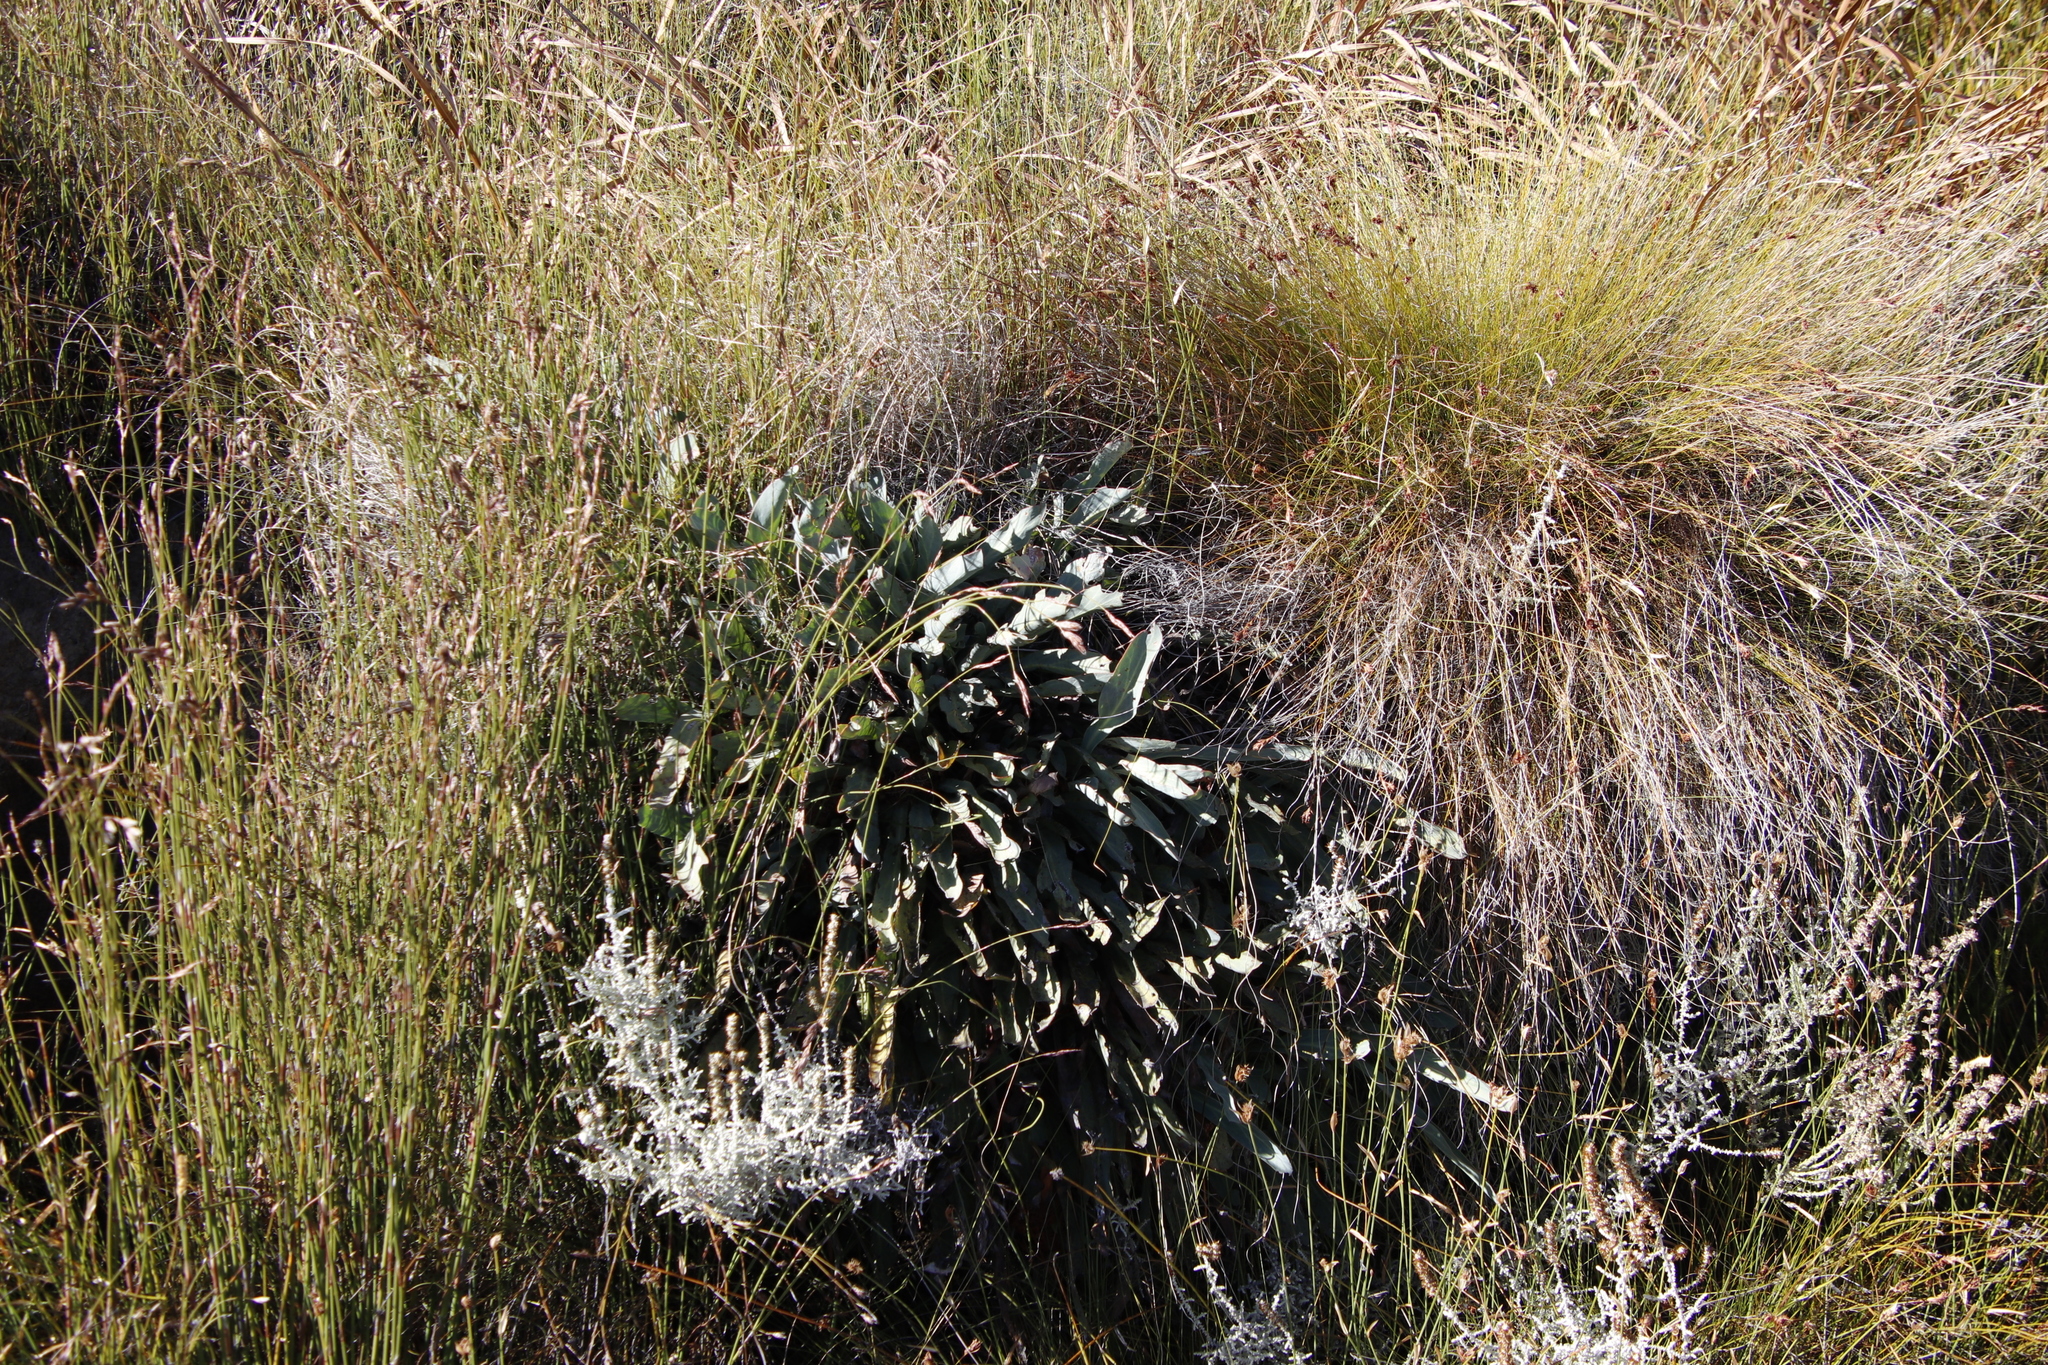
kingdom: Plantae
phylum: Tracheophyta
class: Magnoliopsida
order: Proteales
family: Proteaceae
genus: Protea
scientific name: Protea laevis
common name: Smooth-leaf sugarbush
